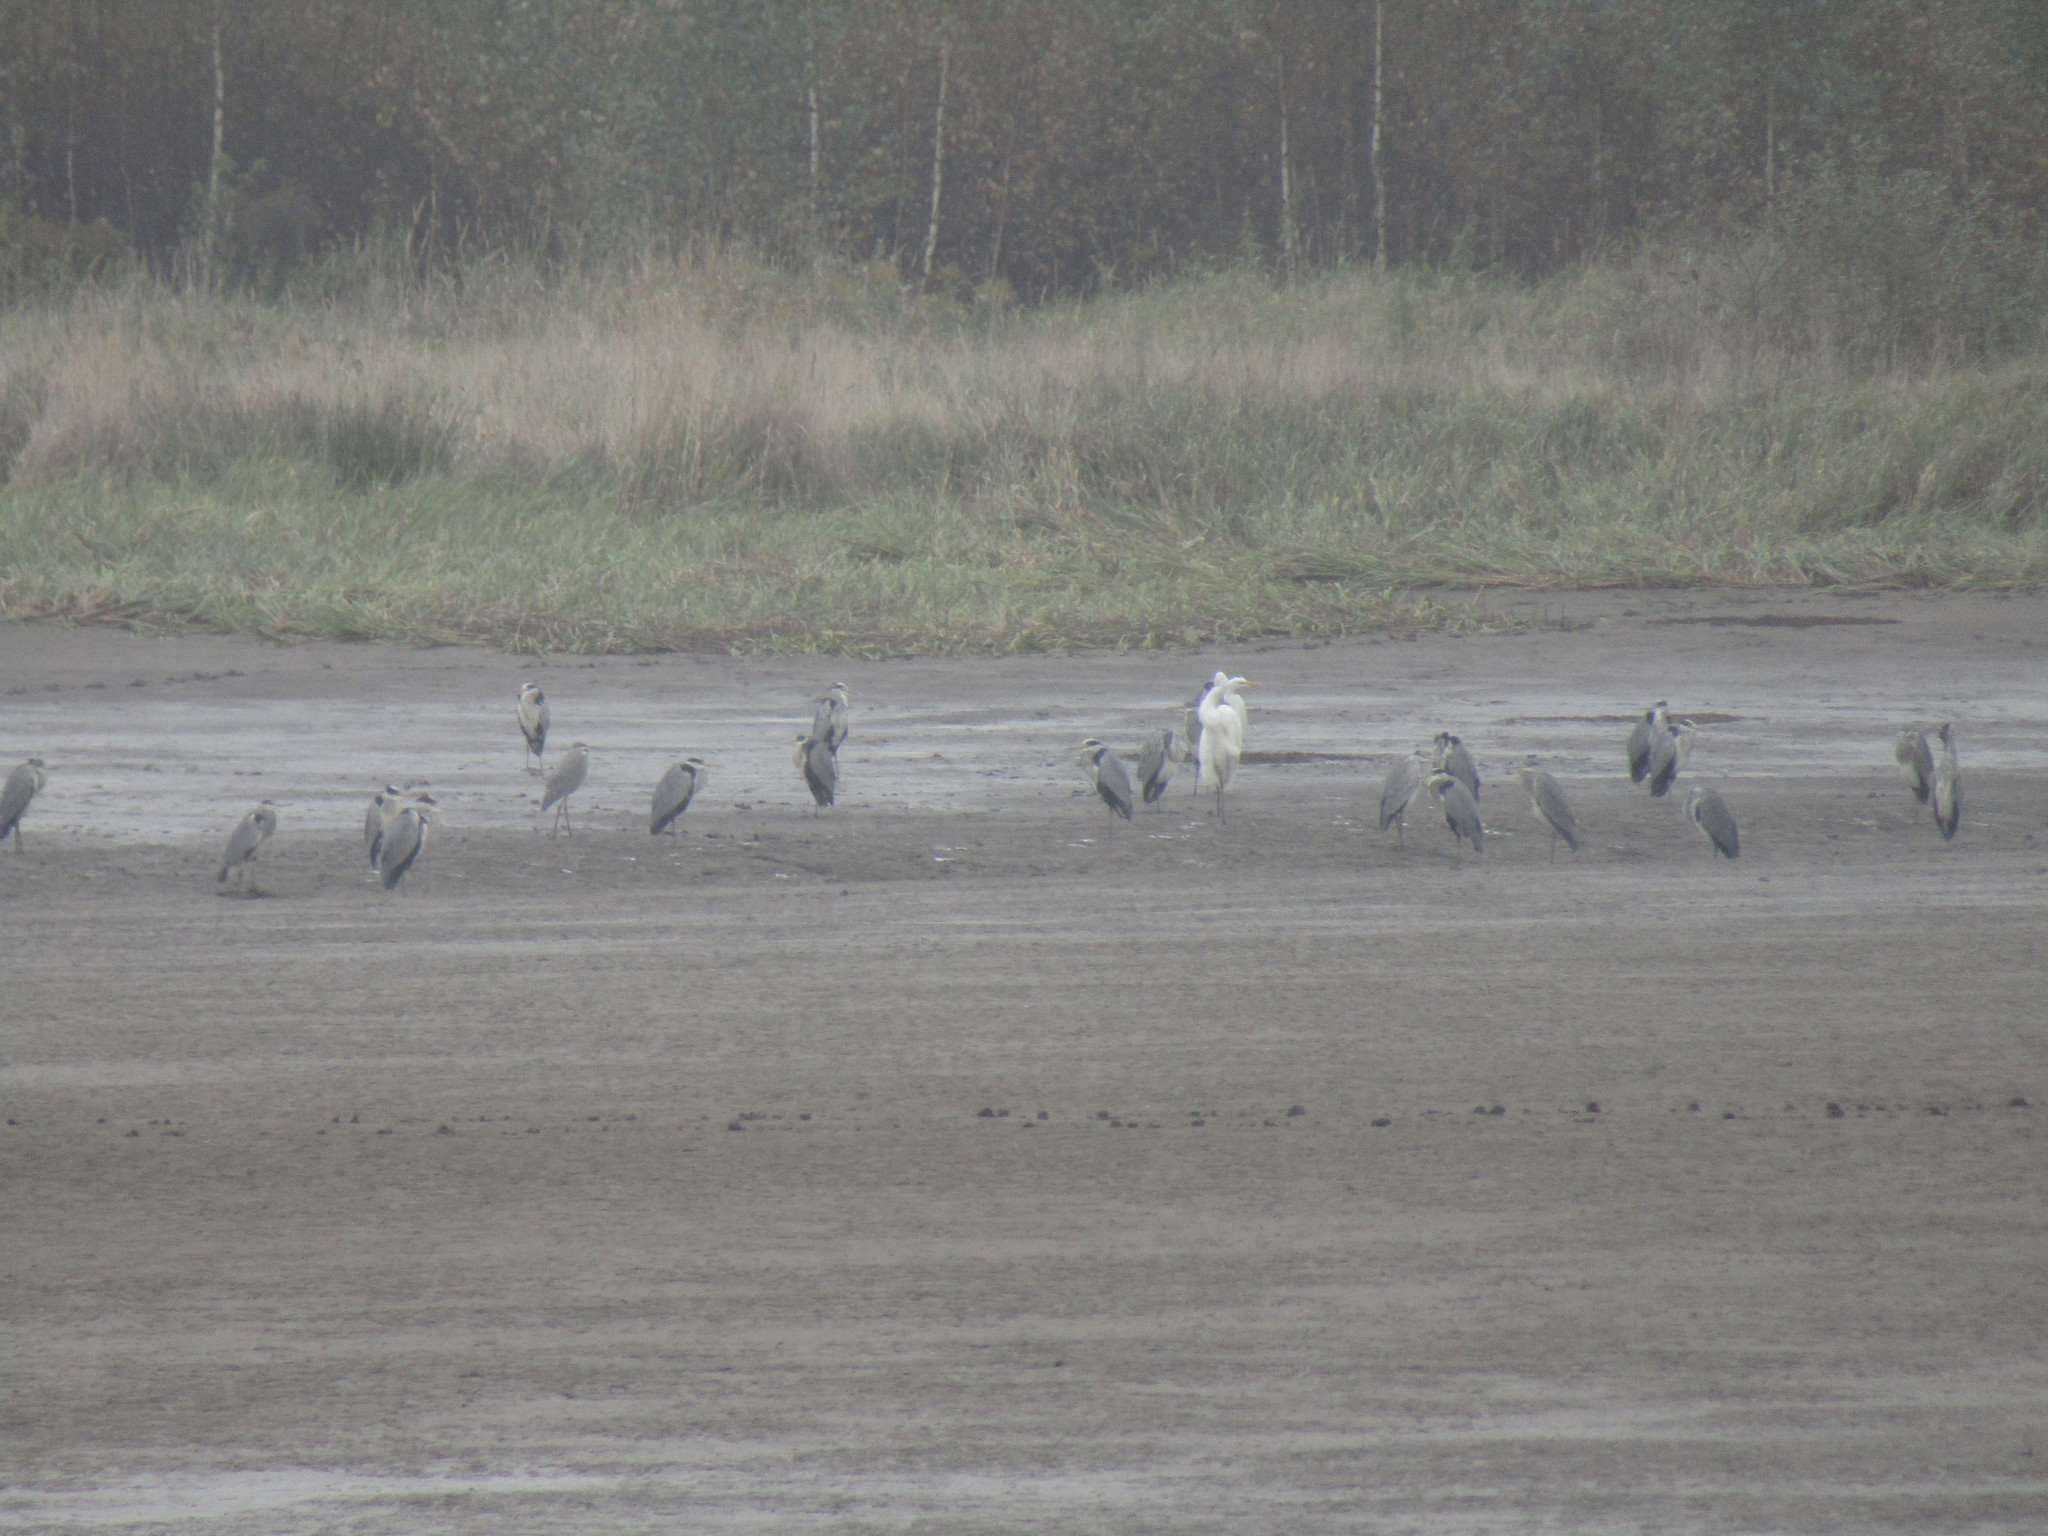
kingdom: Animalia
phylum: Chordata
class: Aves
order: Pelecaniformes
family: Ardeidae
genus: Ardea
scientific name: Ardea cinerea
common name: Grey heron
